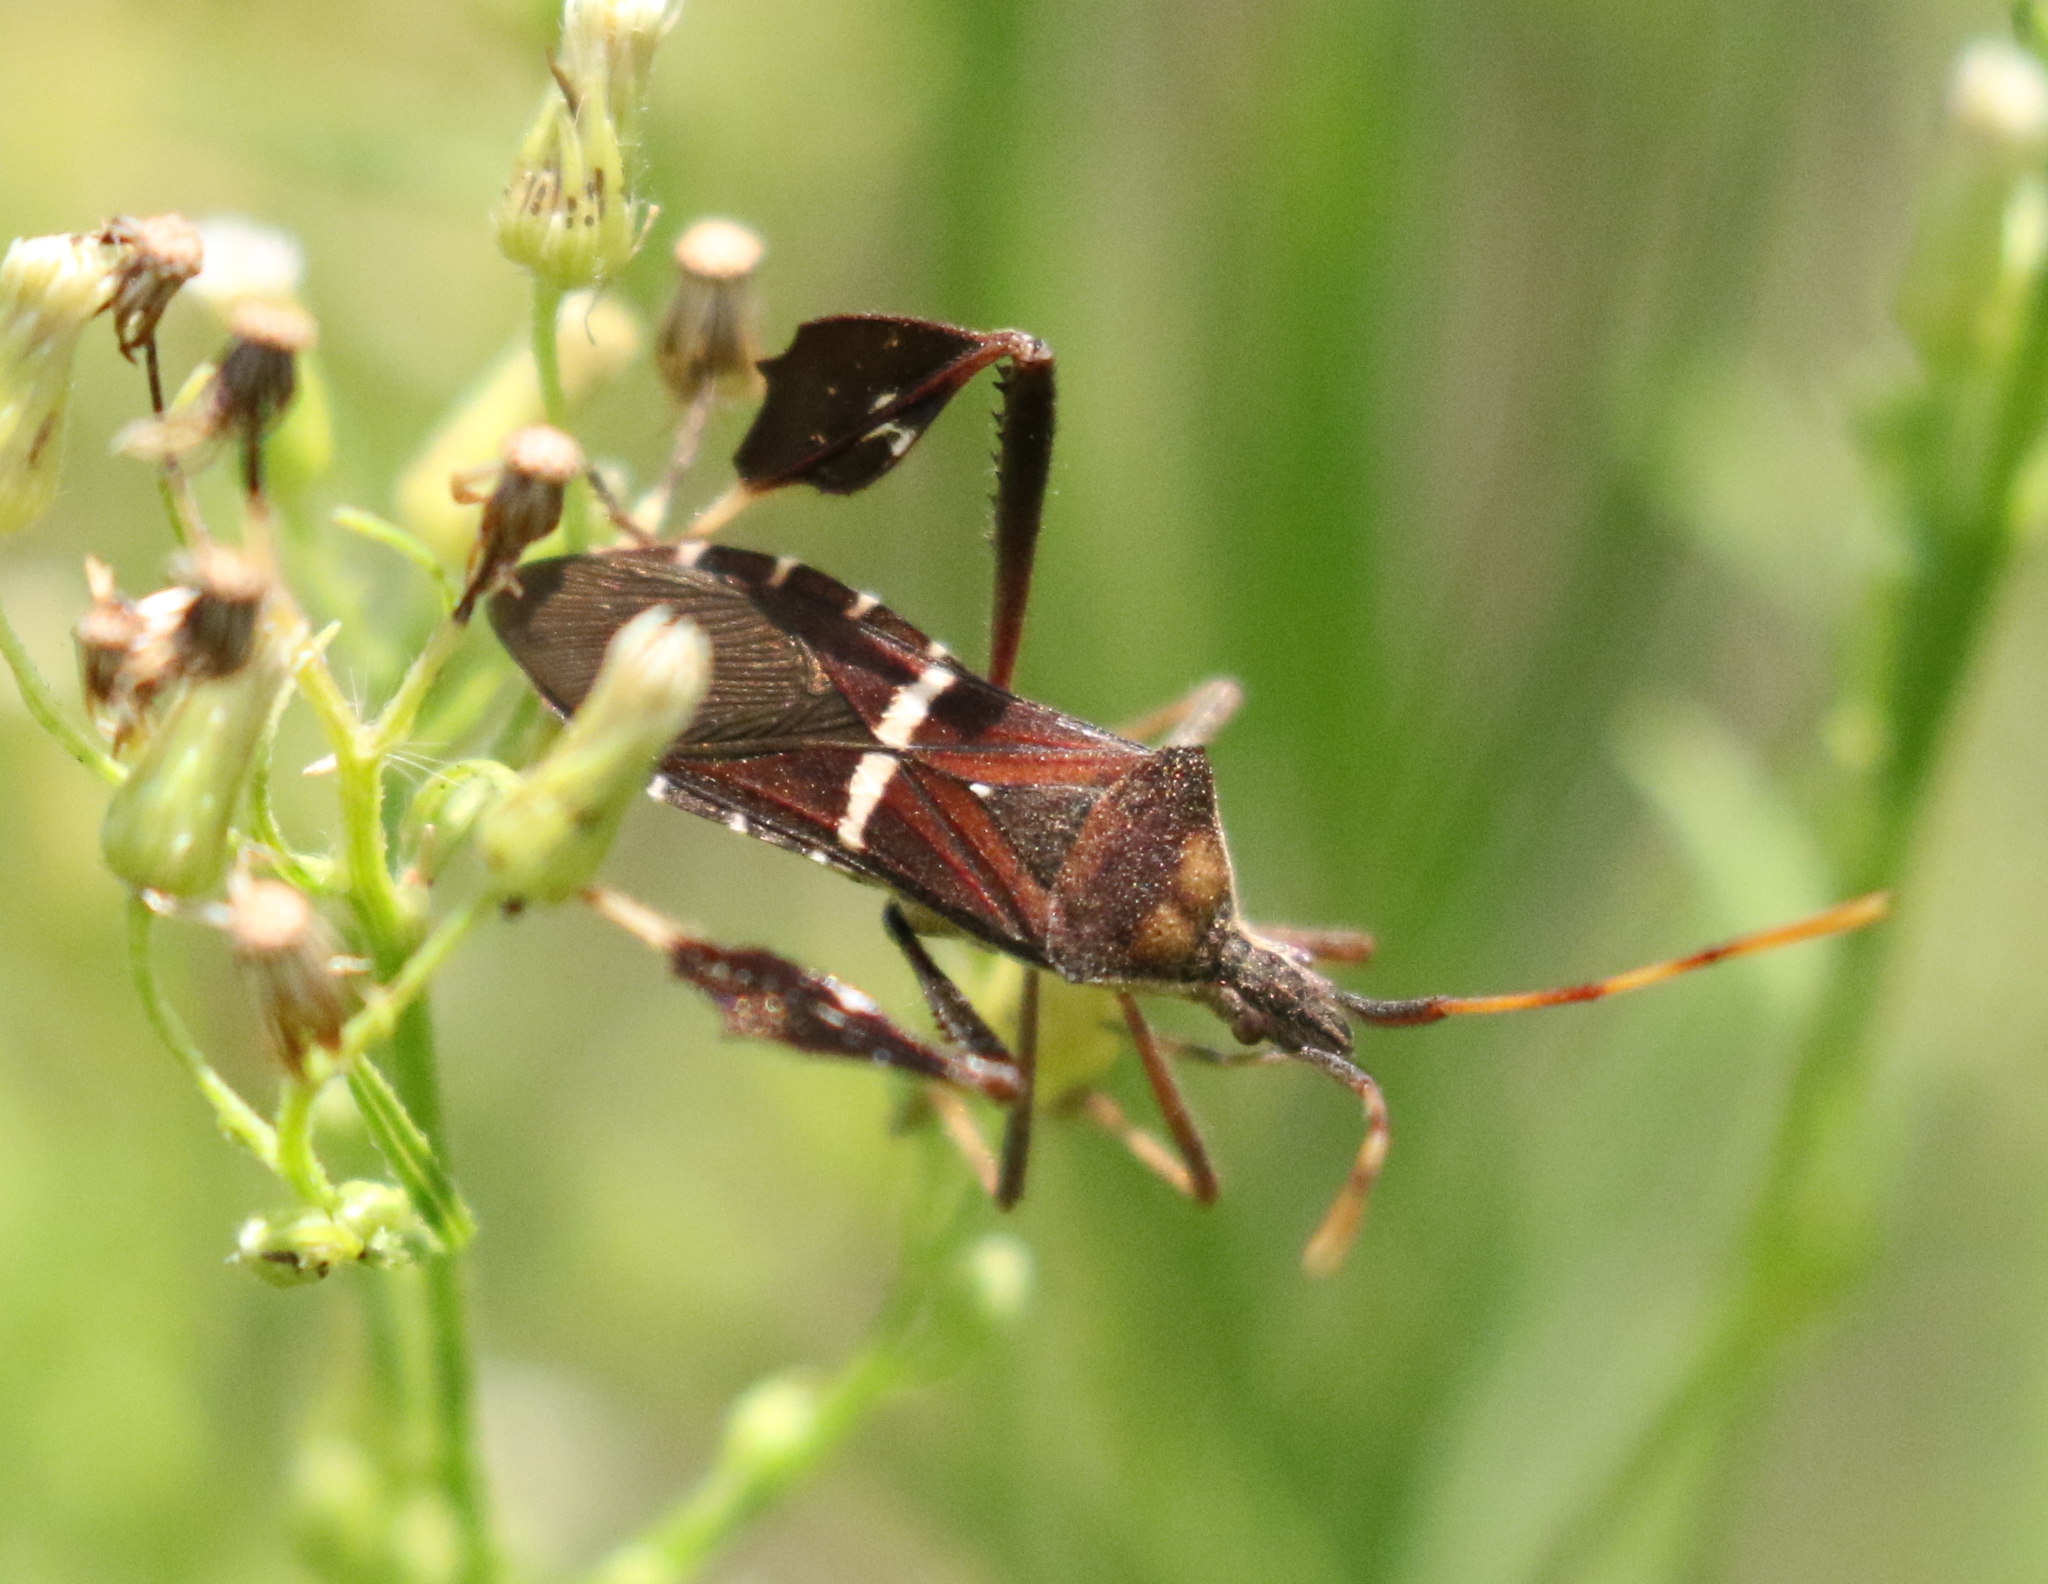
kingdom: Animalia
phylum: Arthropoda
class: Insecta
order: Hemiptera
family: Coreidae
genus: Leptoglossus
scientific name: Leptoglossus phyllopus
